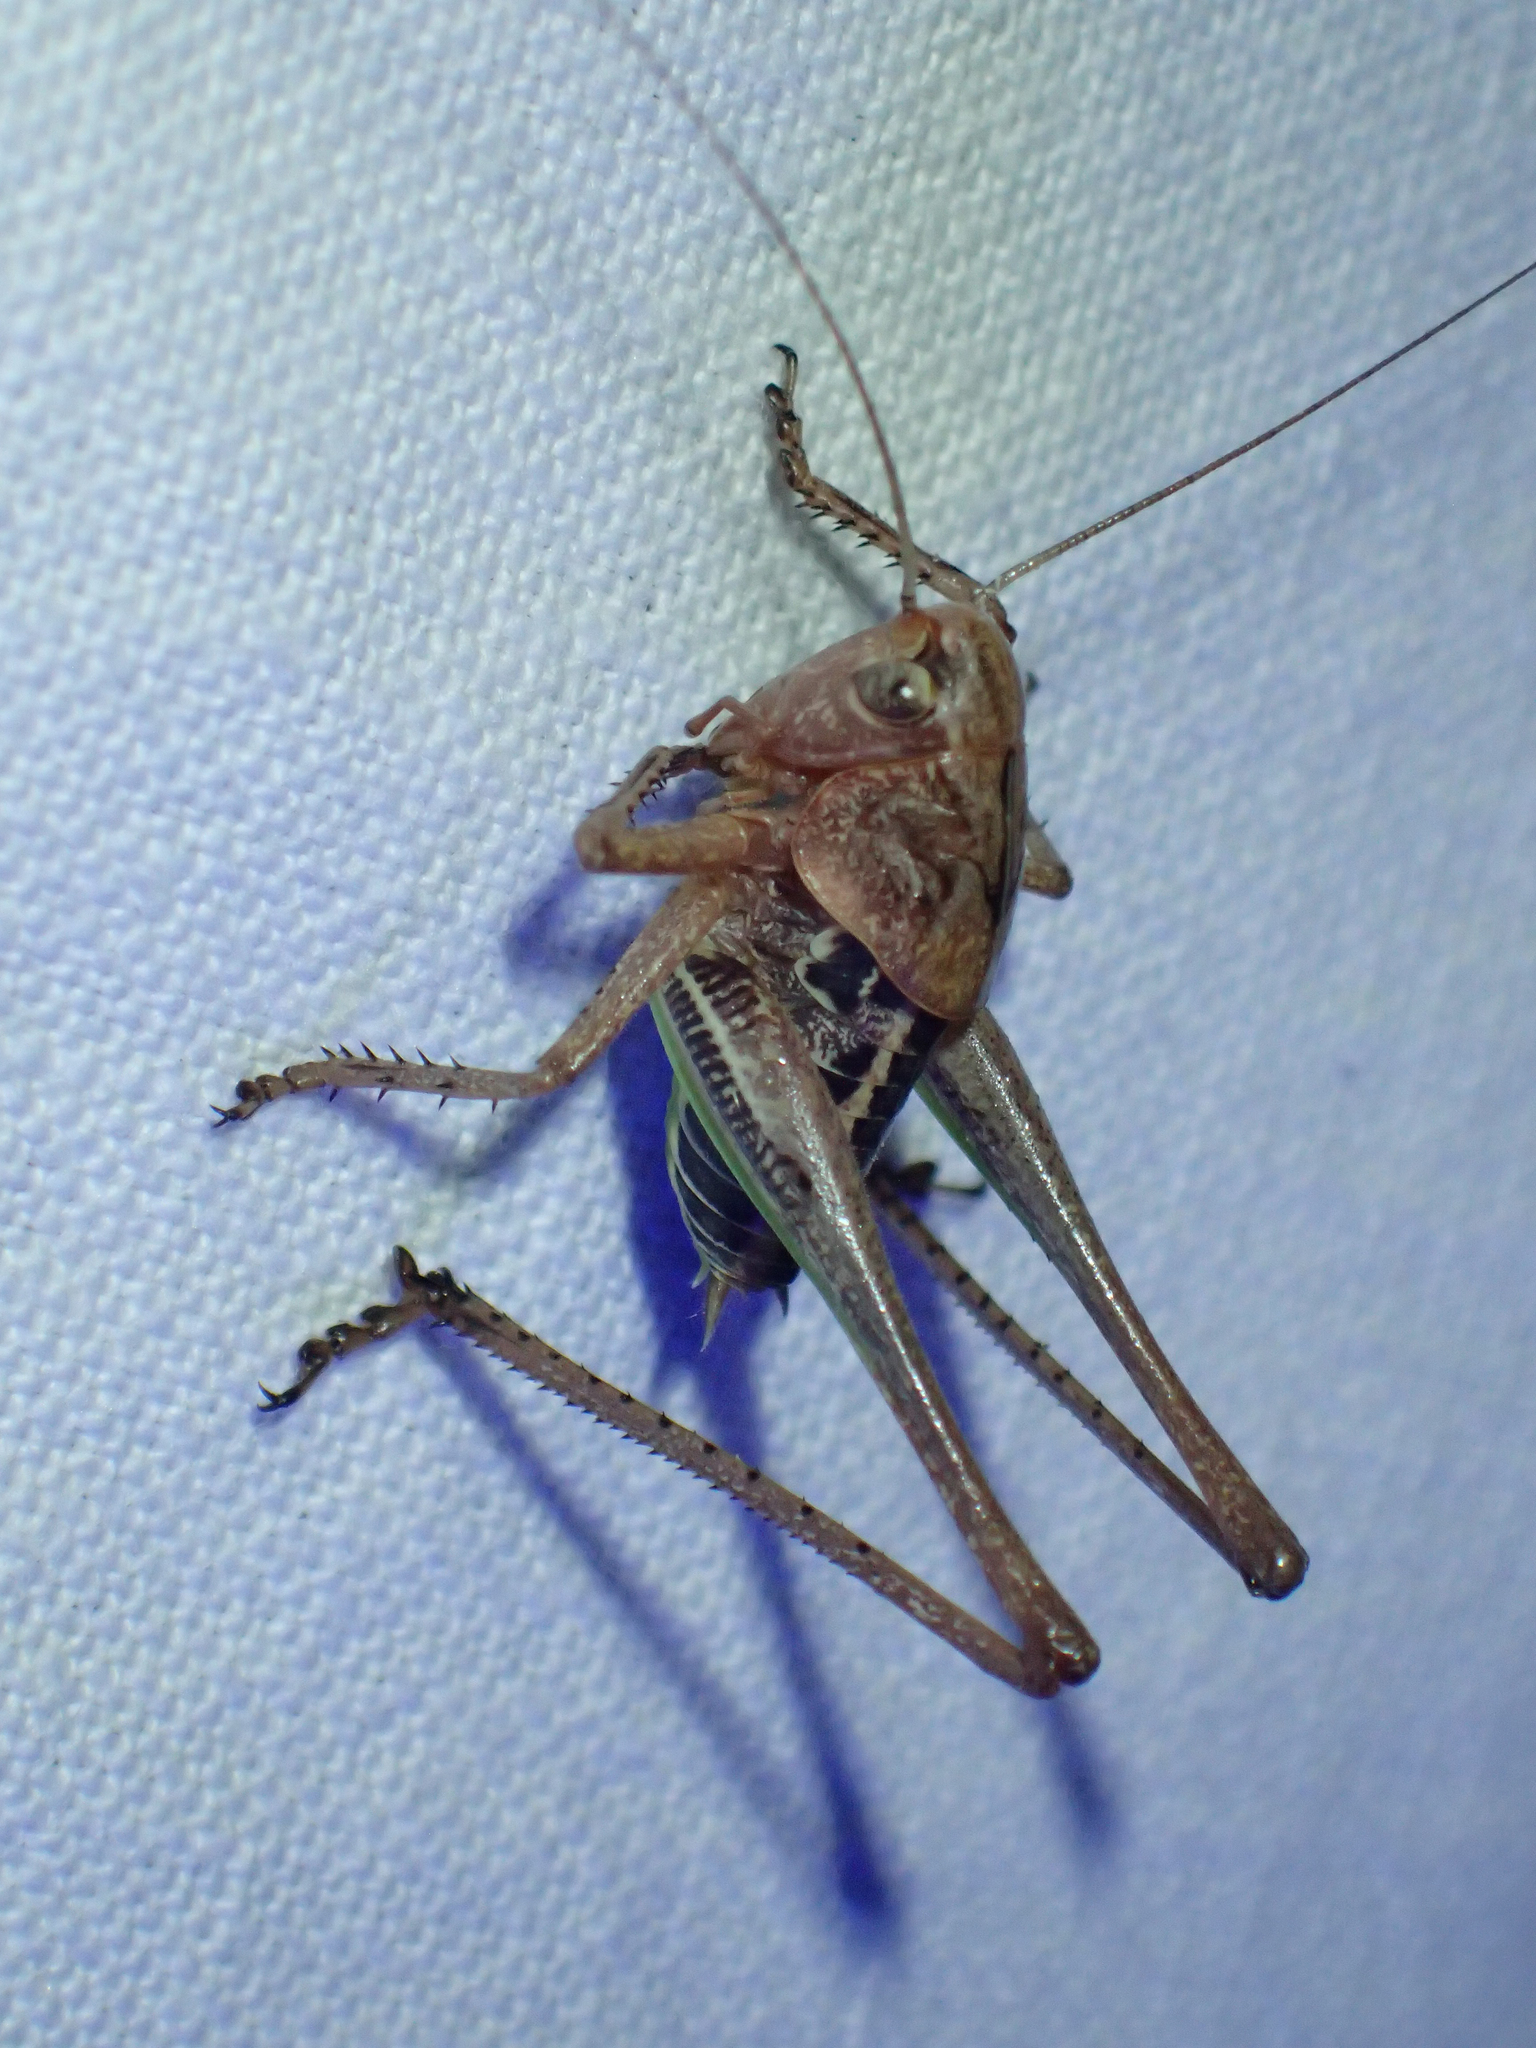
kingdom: Animalia
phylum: Arthropoda
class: Insecta
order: Orthoptera
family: Tettigoniidae
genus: Decticus
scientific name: Decticus albifrons
